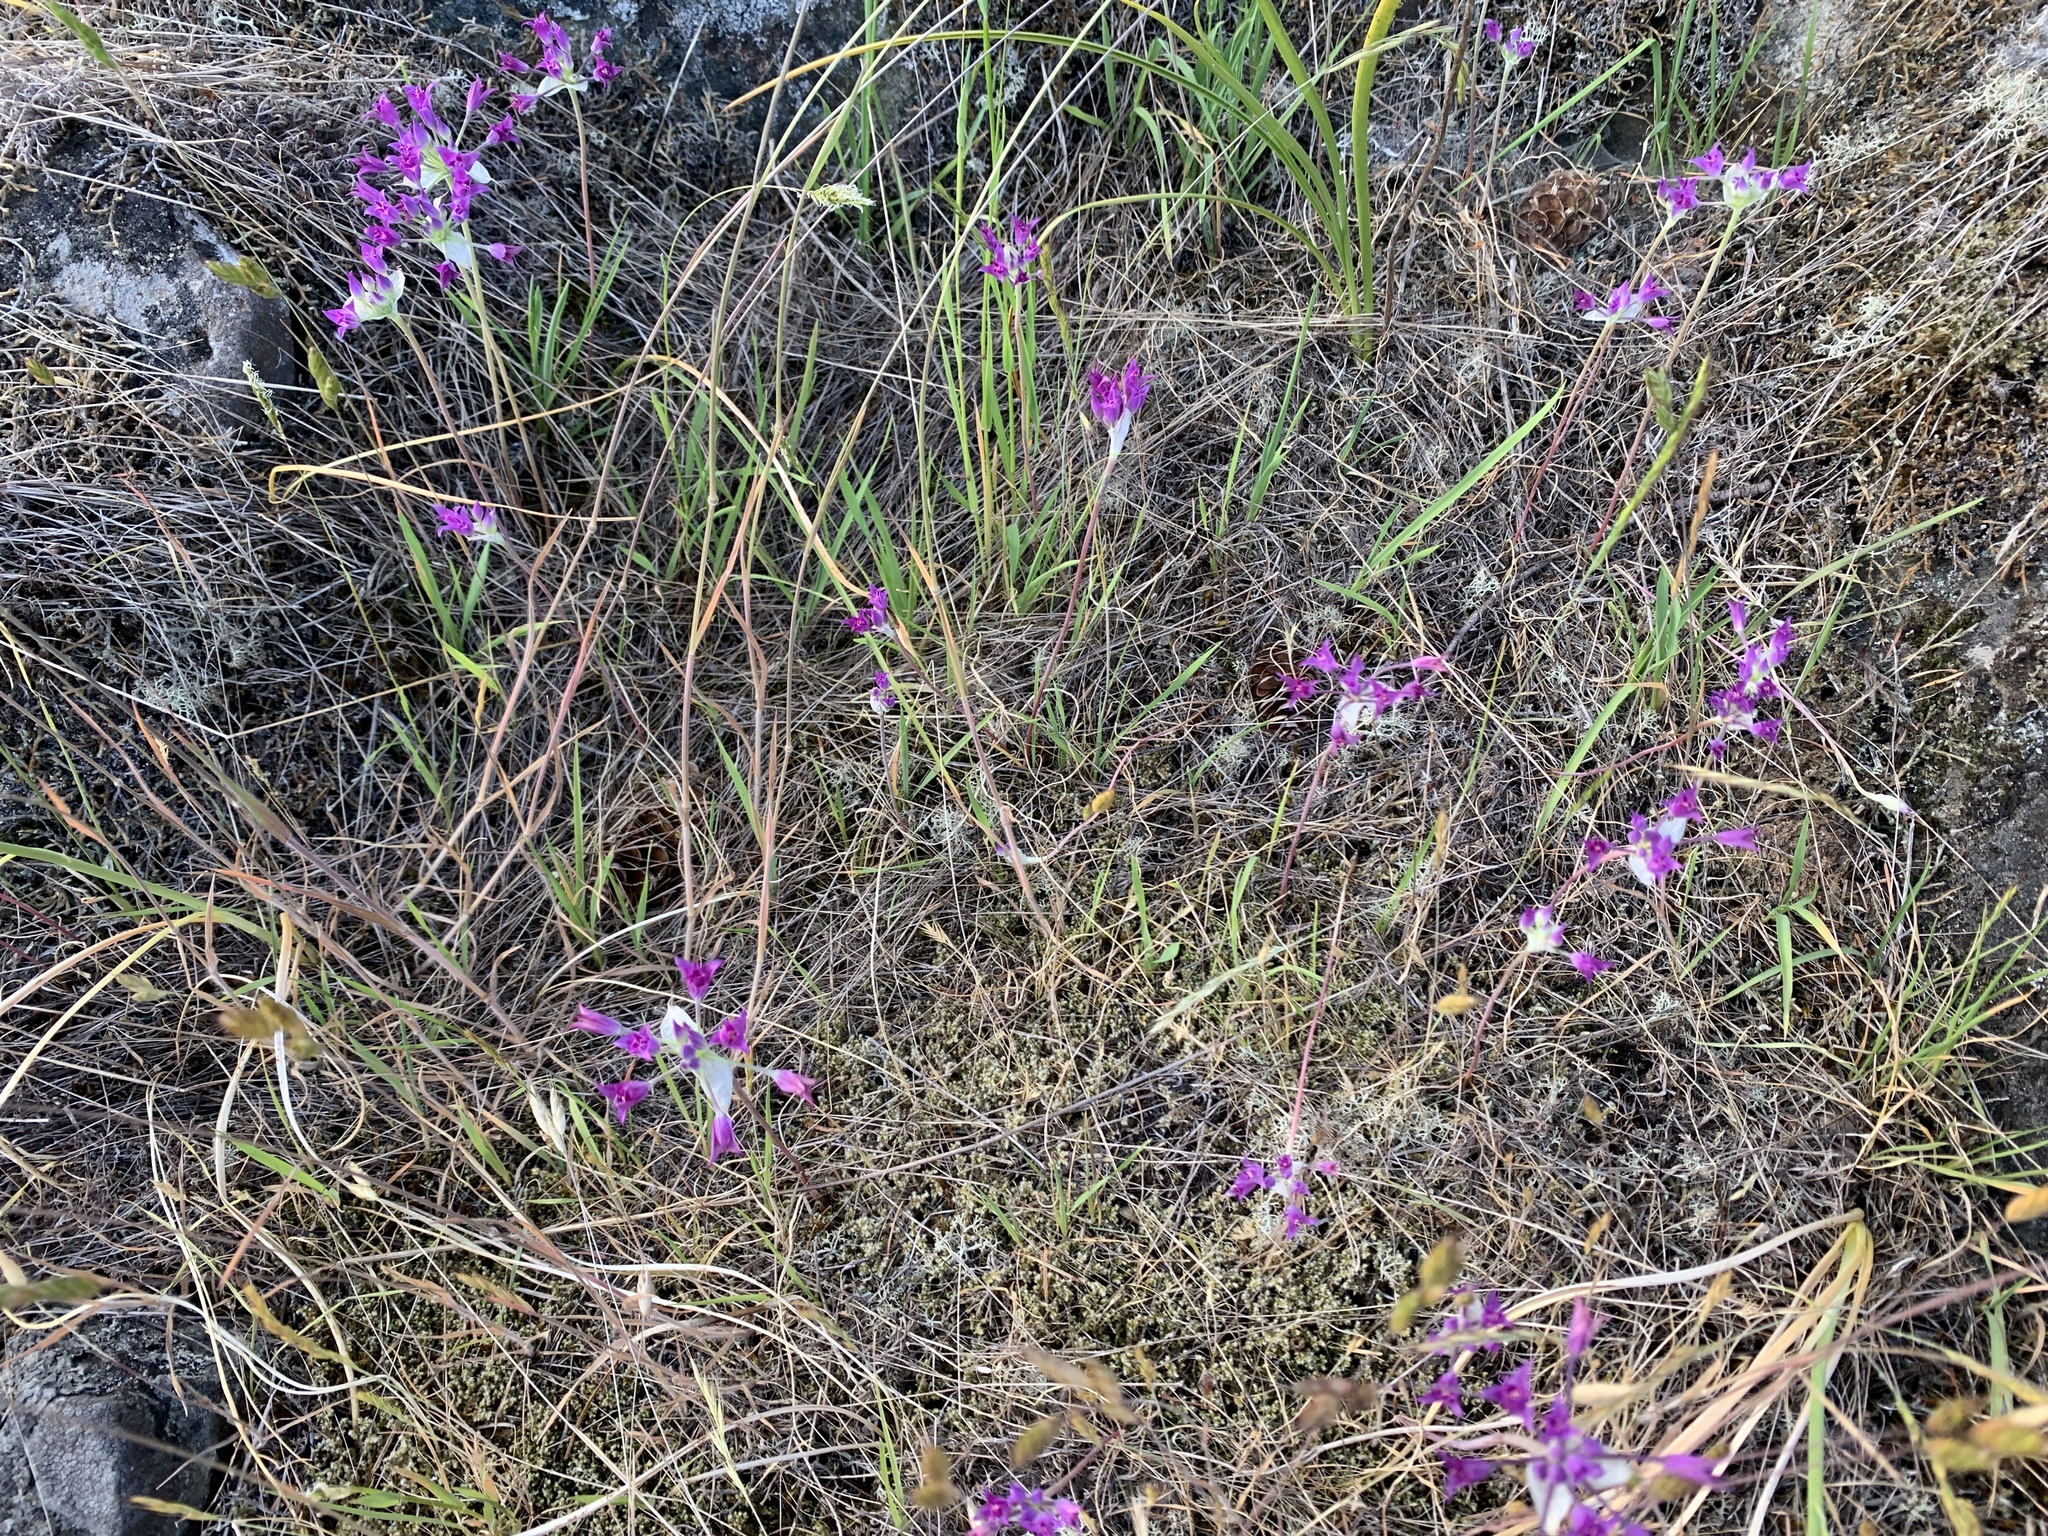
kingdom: Plantae
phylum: Tracheophyta
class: Liliopsida
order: Asparagales
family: Amaryllidaceae
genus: Allium
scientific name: Allium acuminatum
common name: Hooker's onion
